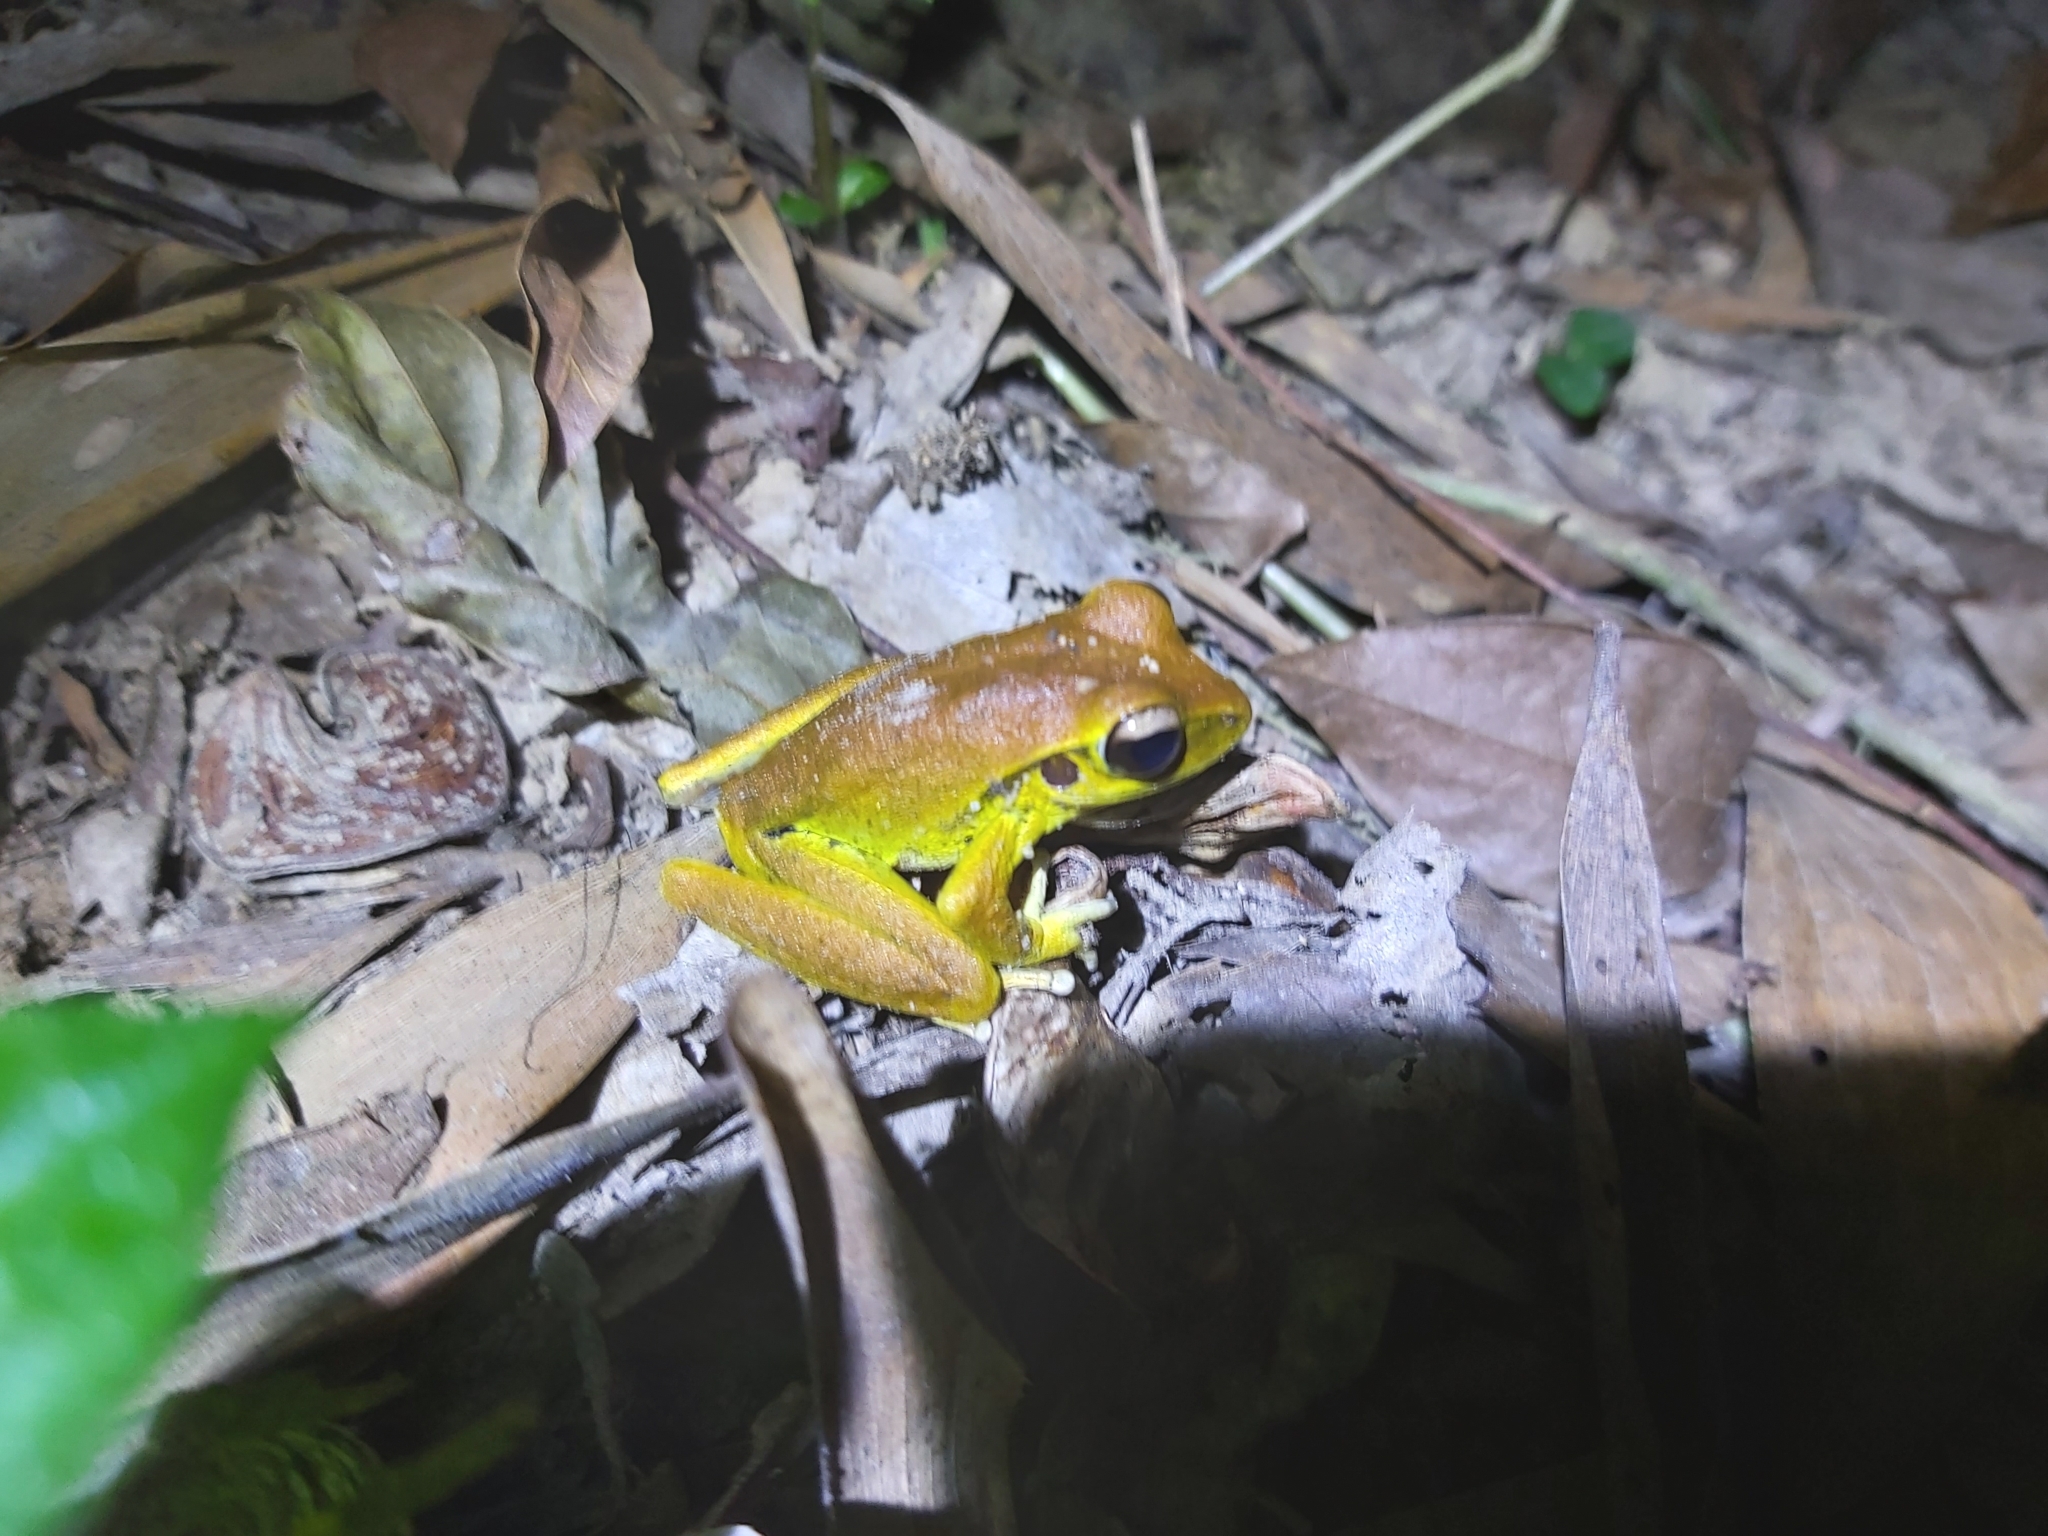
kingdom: Animalia
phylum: Chordata
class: Amphibia
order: Anura
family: Hylidae
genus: Ranoidea
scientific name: Ranoidea
